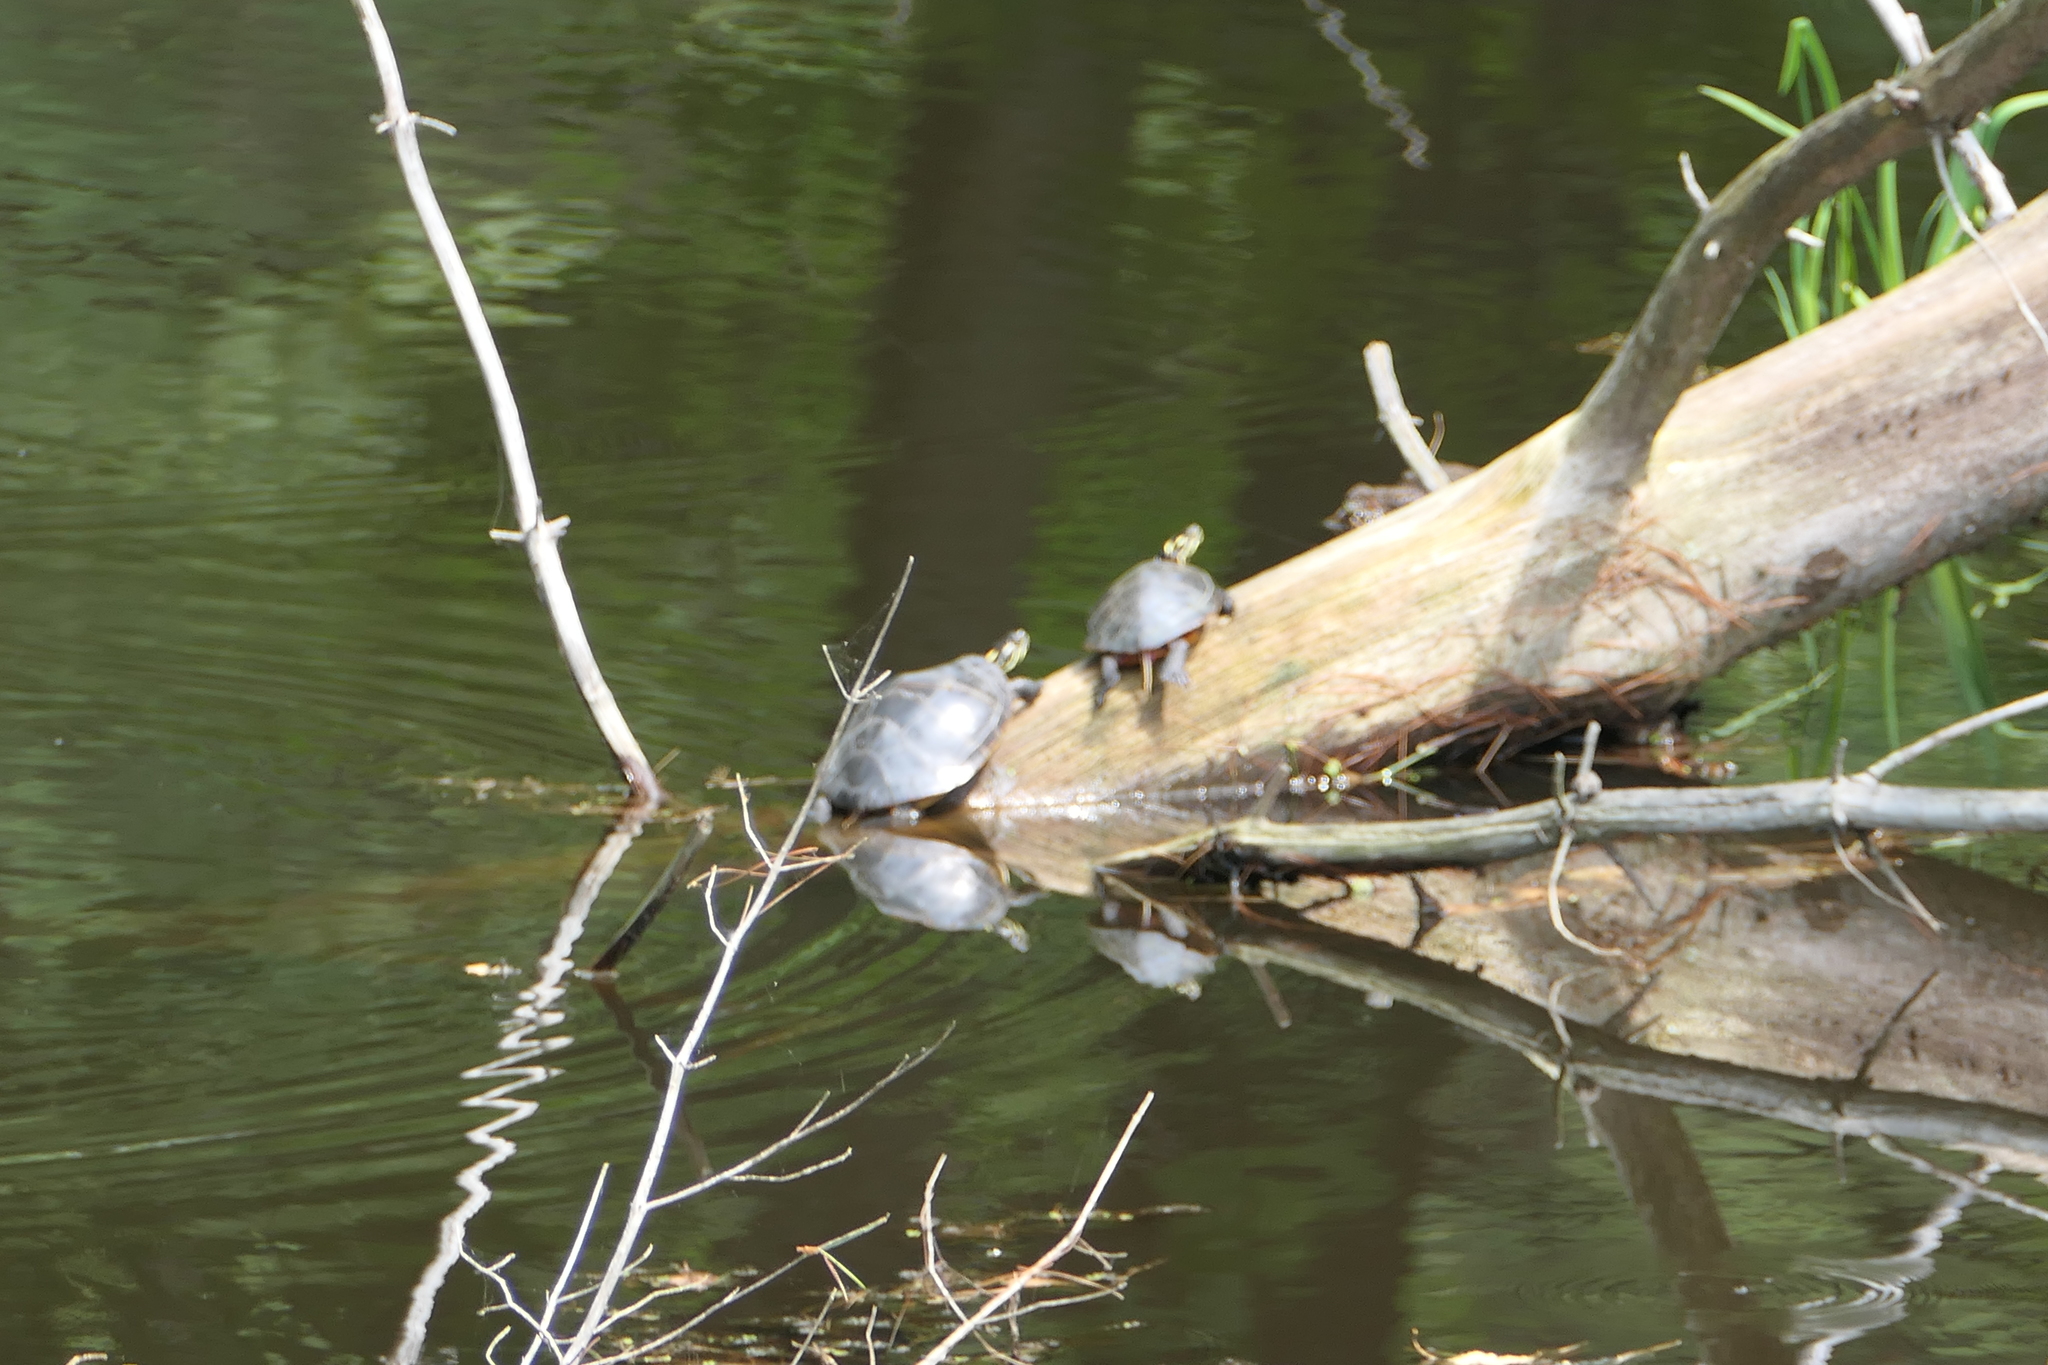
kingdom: Animalia
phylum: Chordata
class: Testudines
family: Emydidae
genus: Chrysemys
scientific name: Chrysemys picta
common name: Painted turtle
